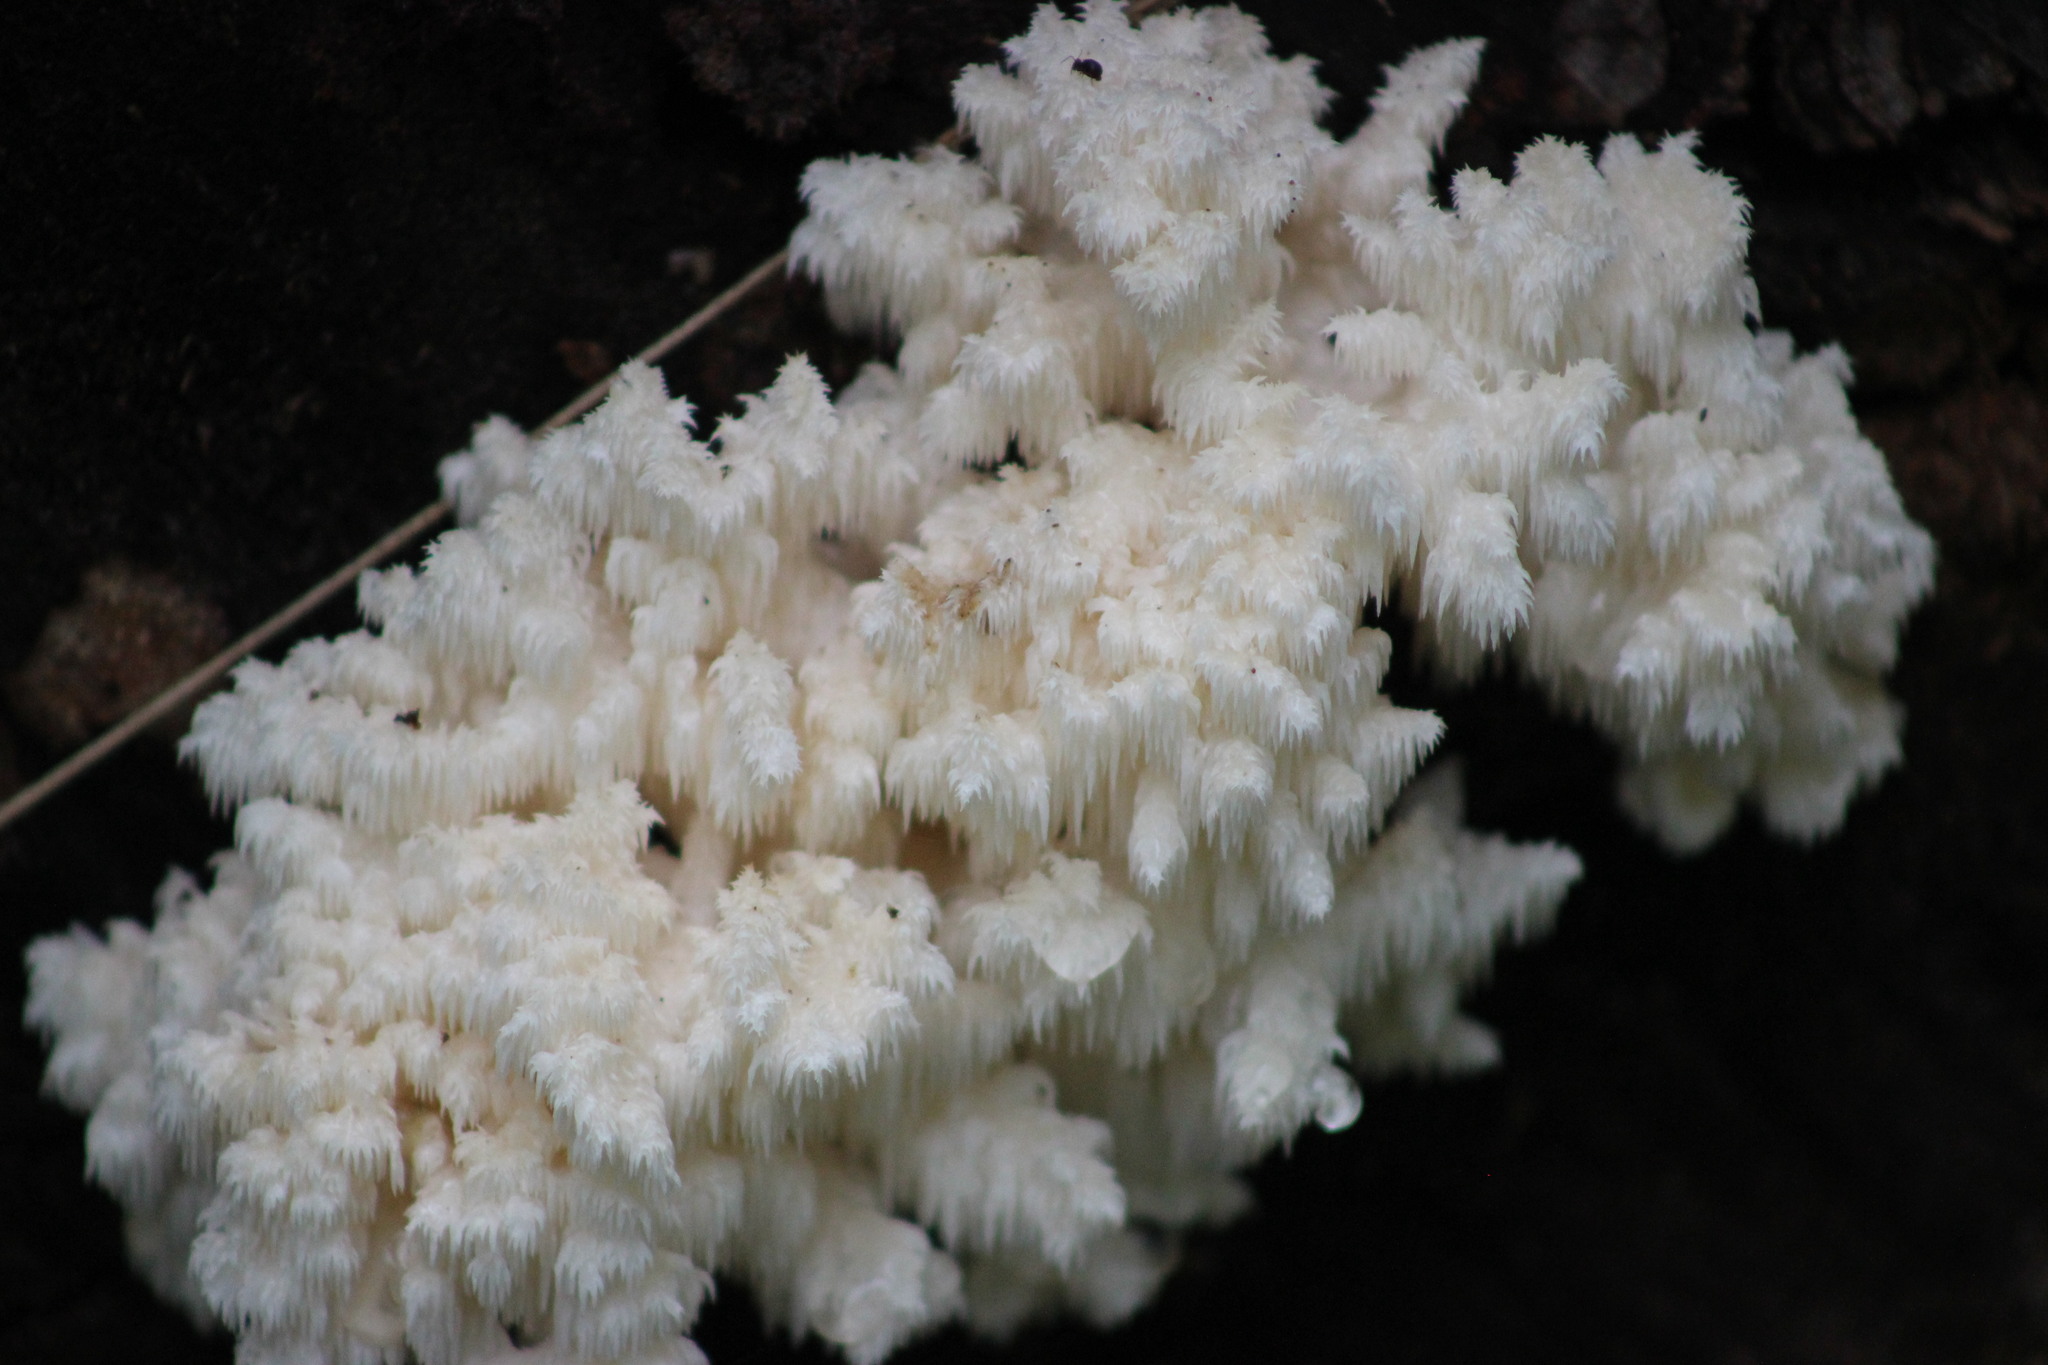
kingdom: Fungi
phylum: Basidiomycota
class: Agaricomycetes
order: Russulales
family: Hericiaceae
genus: Hericium
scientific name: Hericium coralloides
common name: Coral tooth
